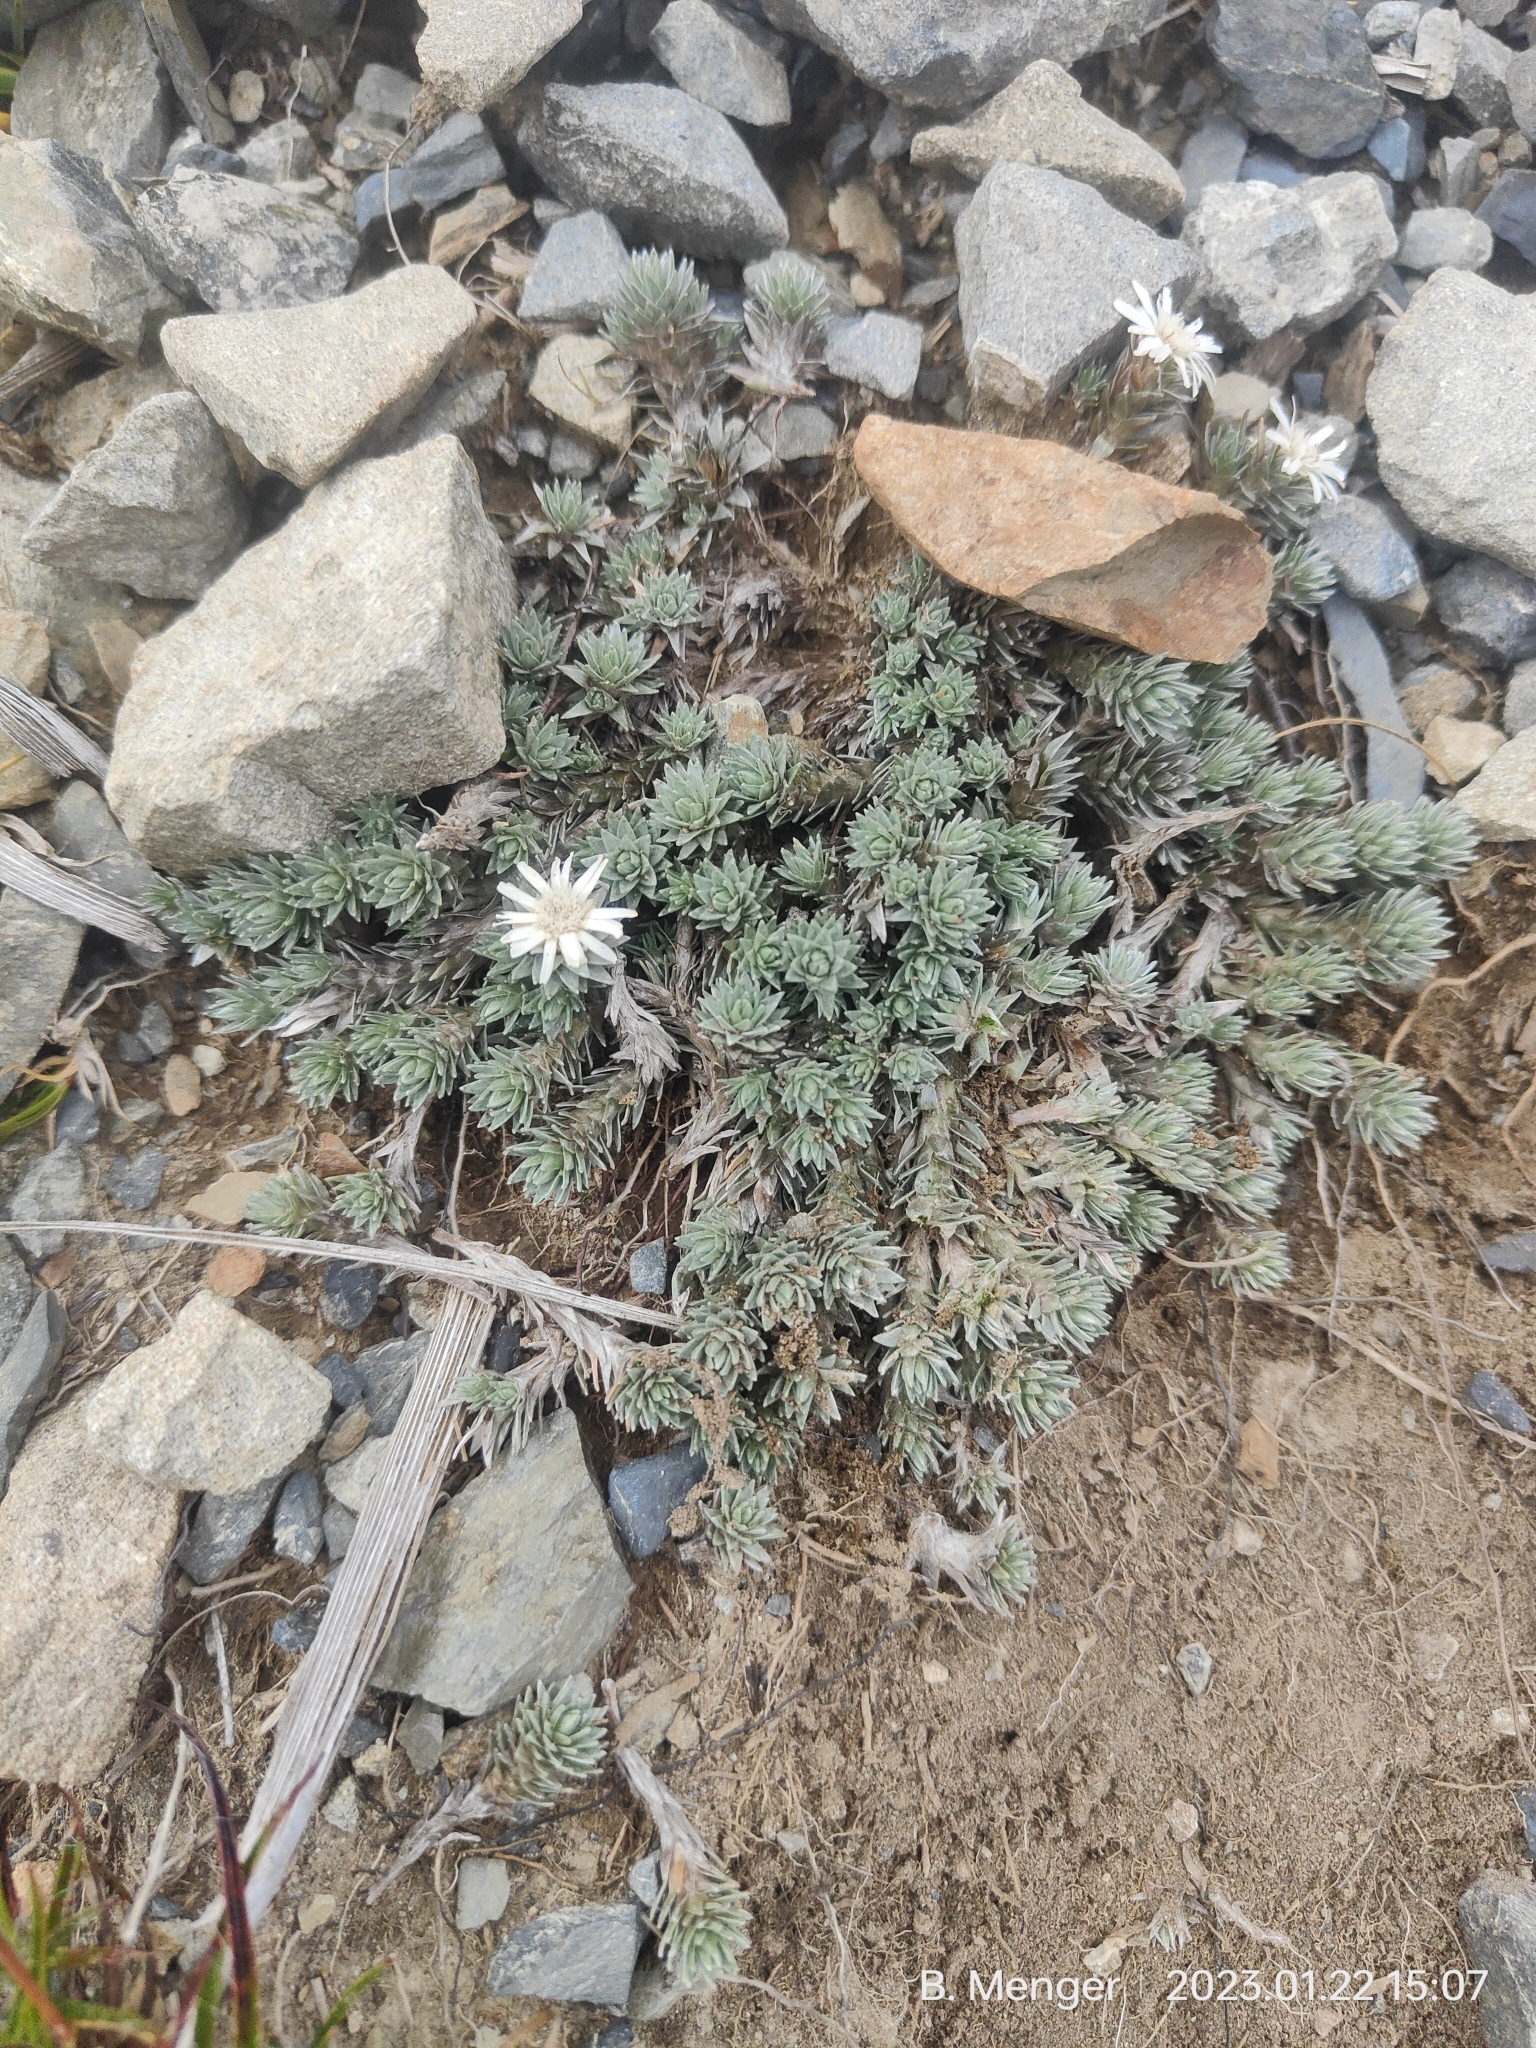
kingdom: Plantae
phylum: Tracheophyta
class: Magnoliopsida
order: Asterales
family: Asteraceae
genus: Raoulia
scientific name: Raoulia grandiflora
